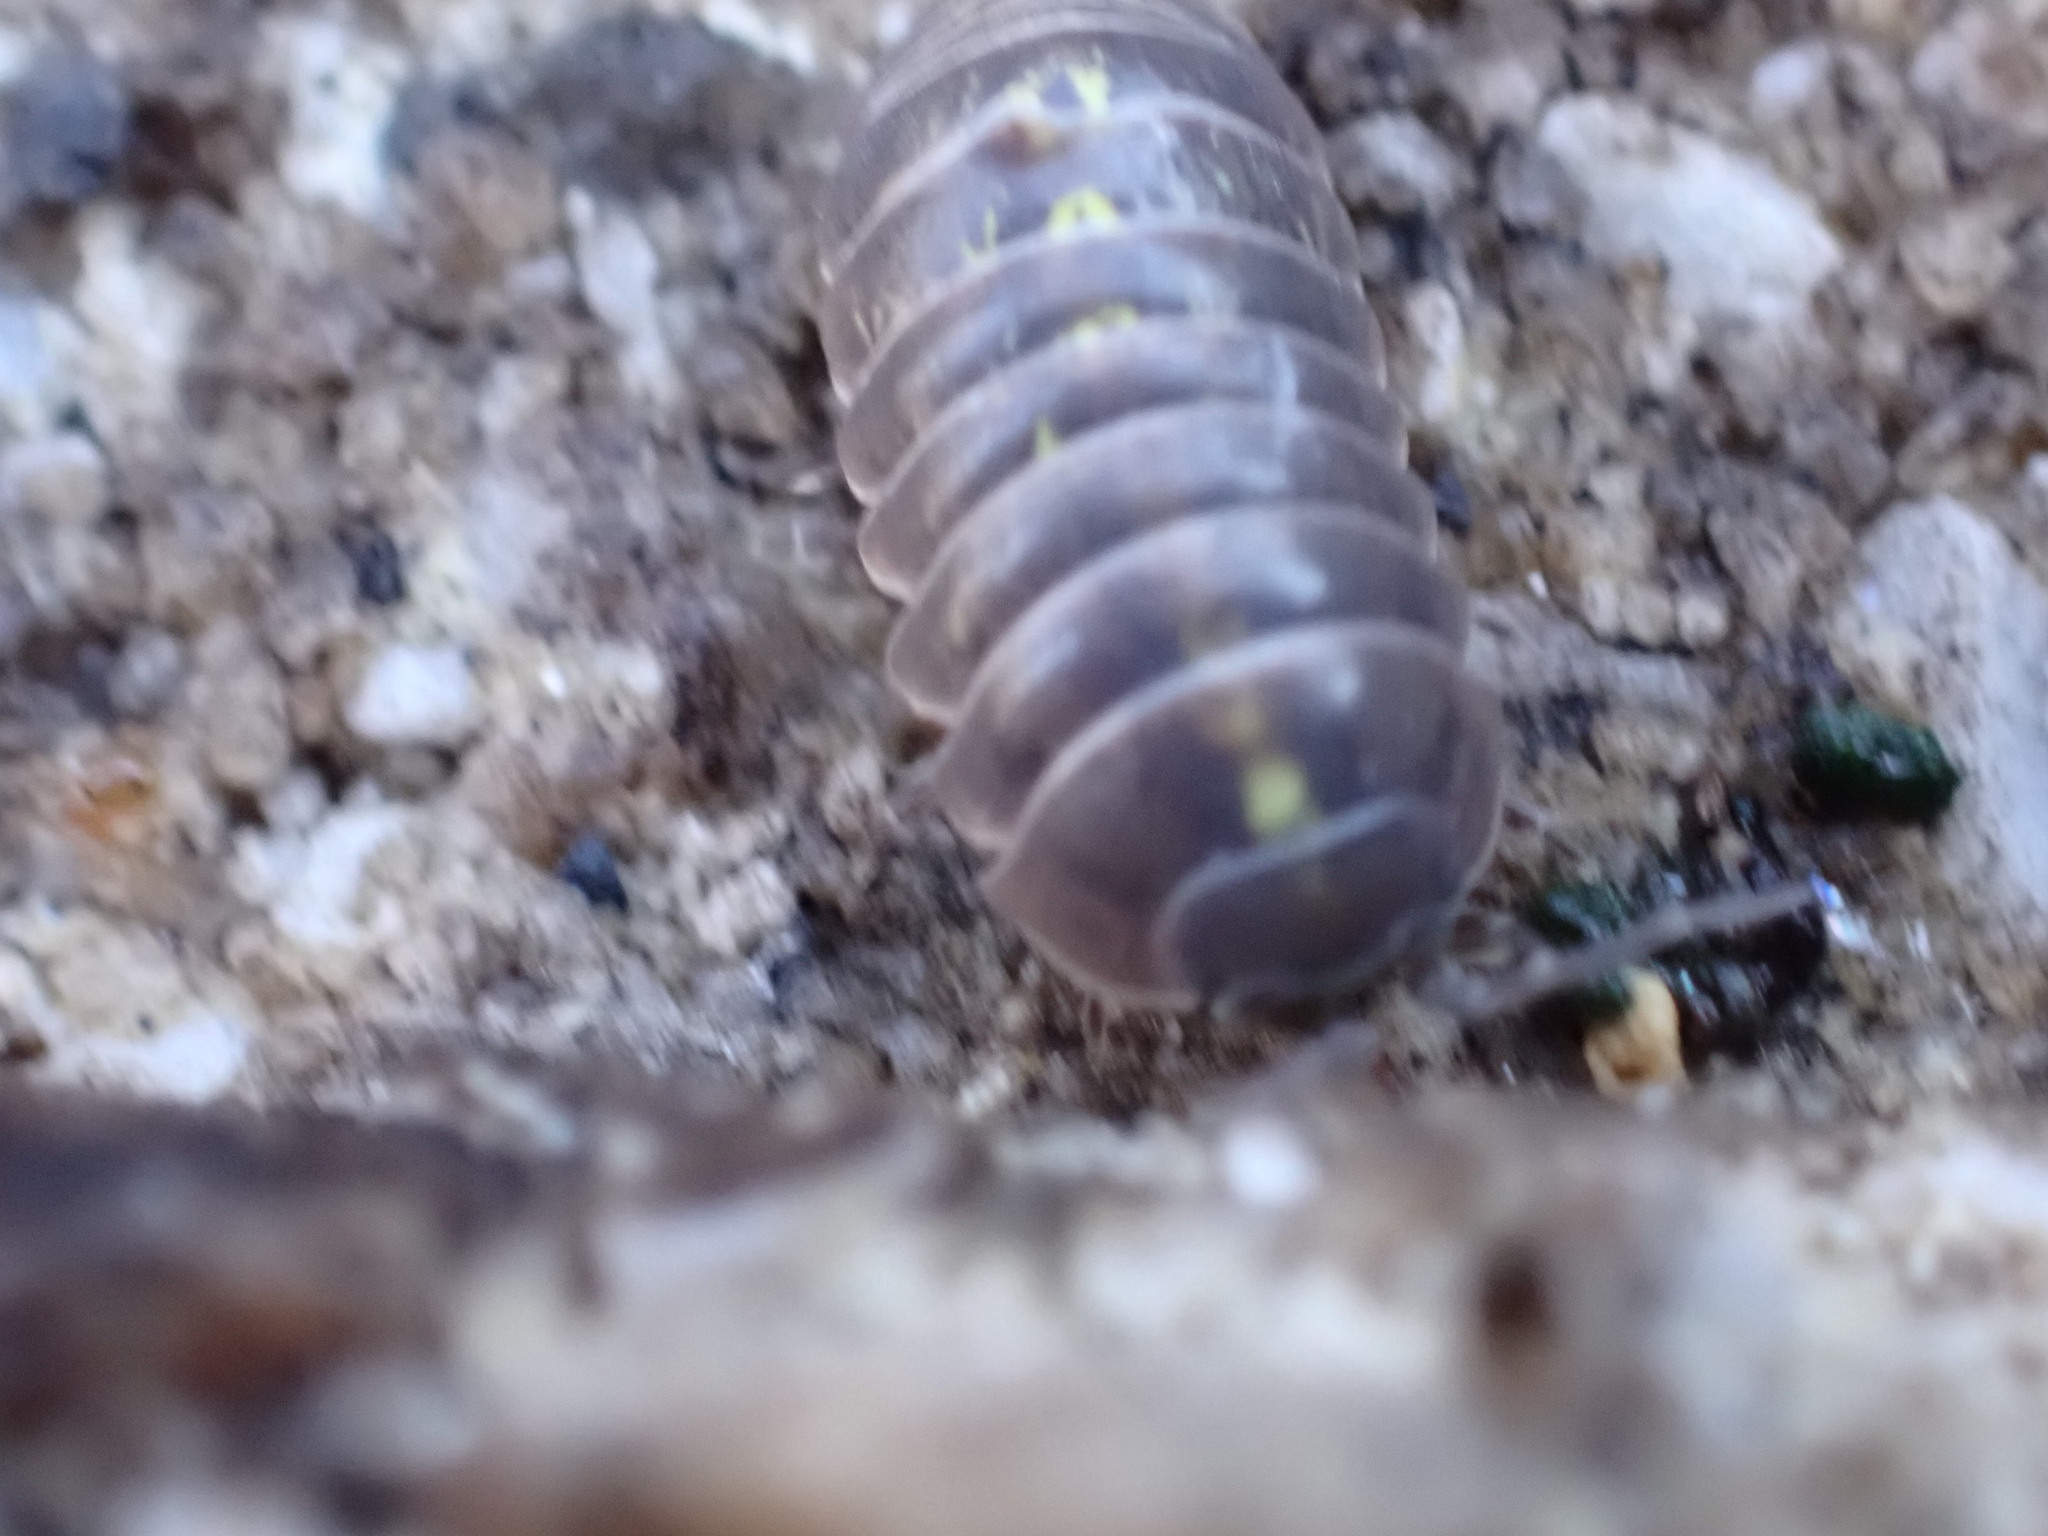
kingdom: Animalia
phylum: Arthropoda
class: Malacostraca
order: Isopoda
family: Armadillidiidae
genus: Armadillidium
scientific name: Armadillidium vulgare
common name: Common pill woodlouse
